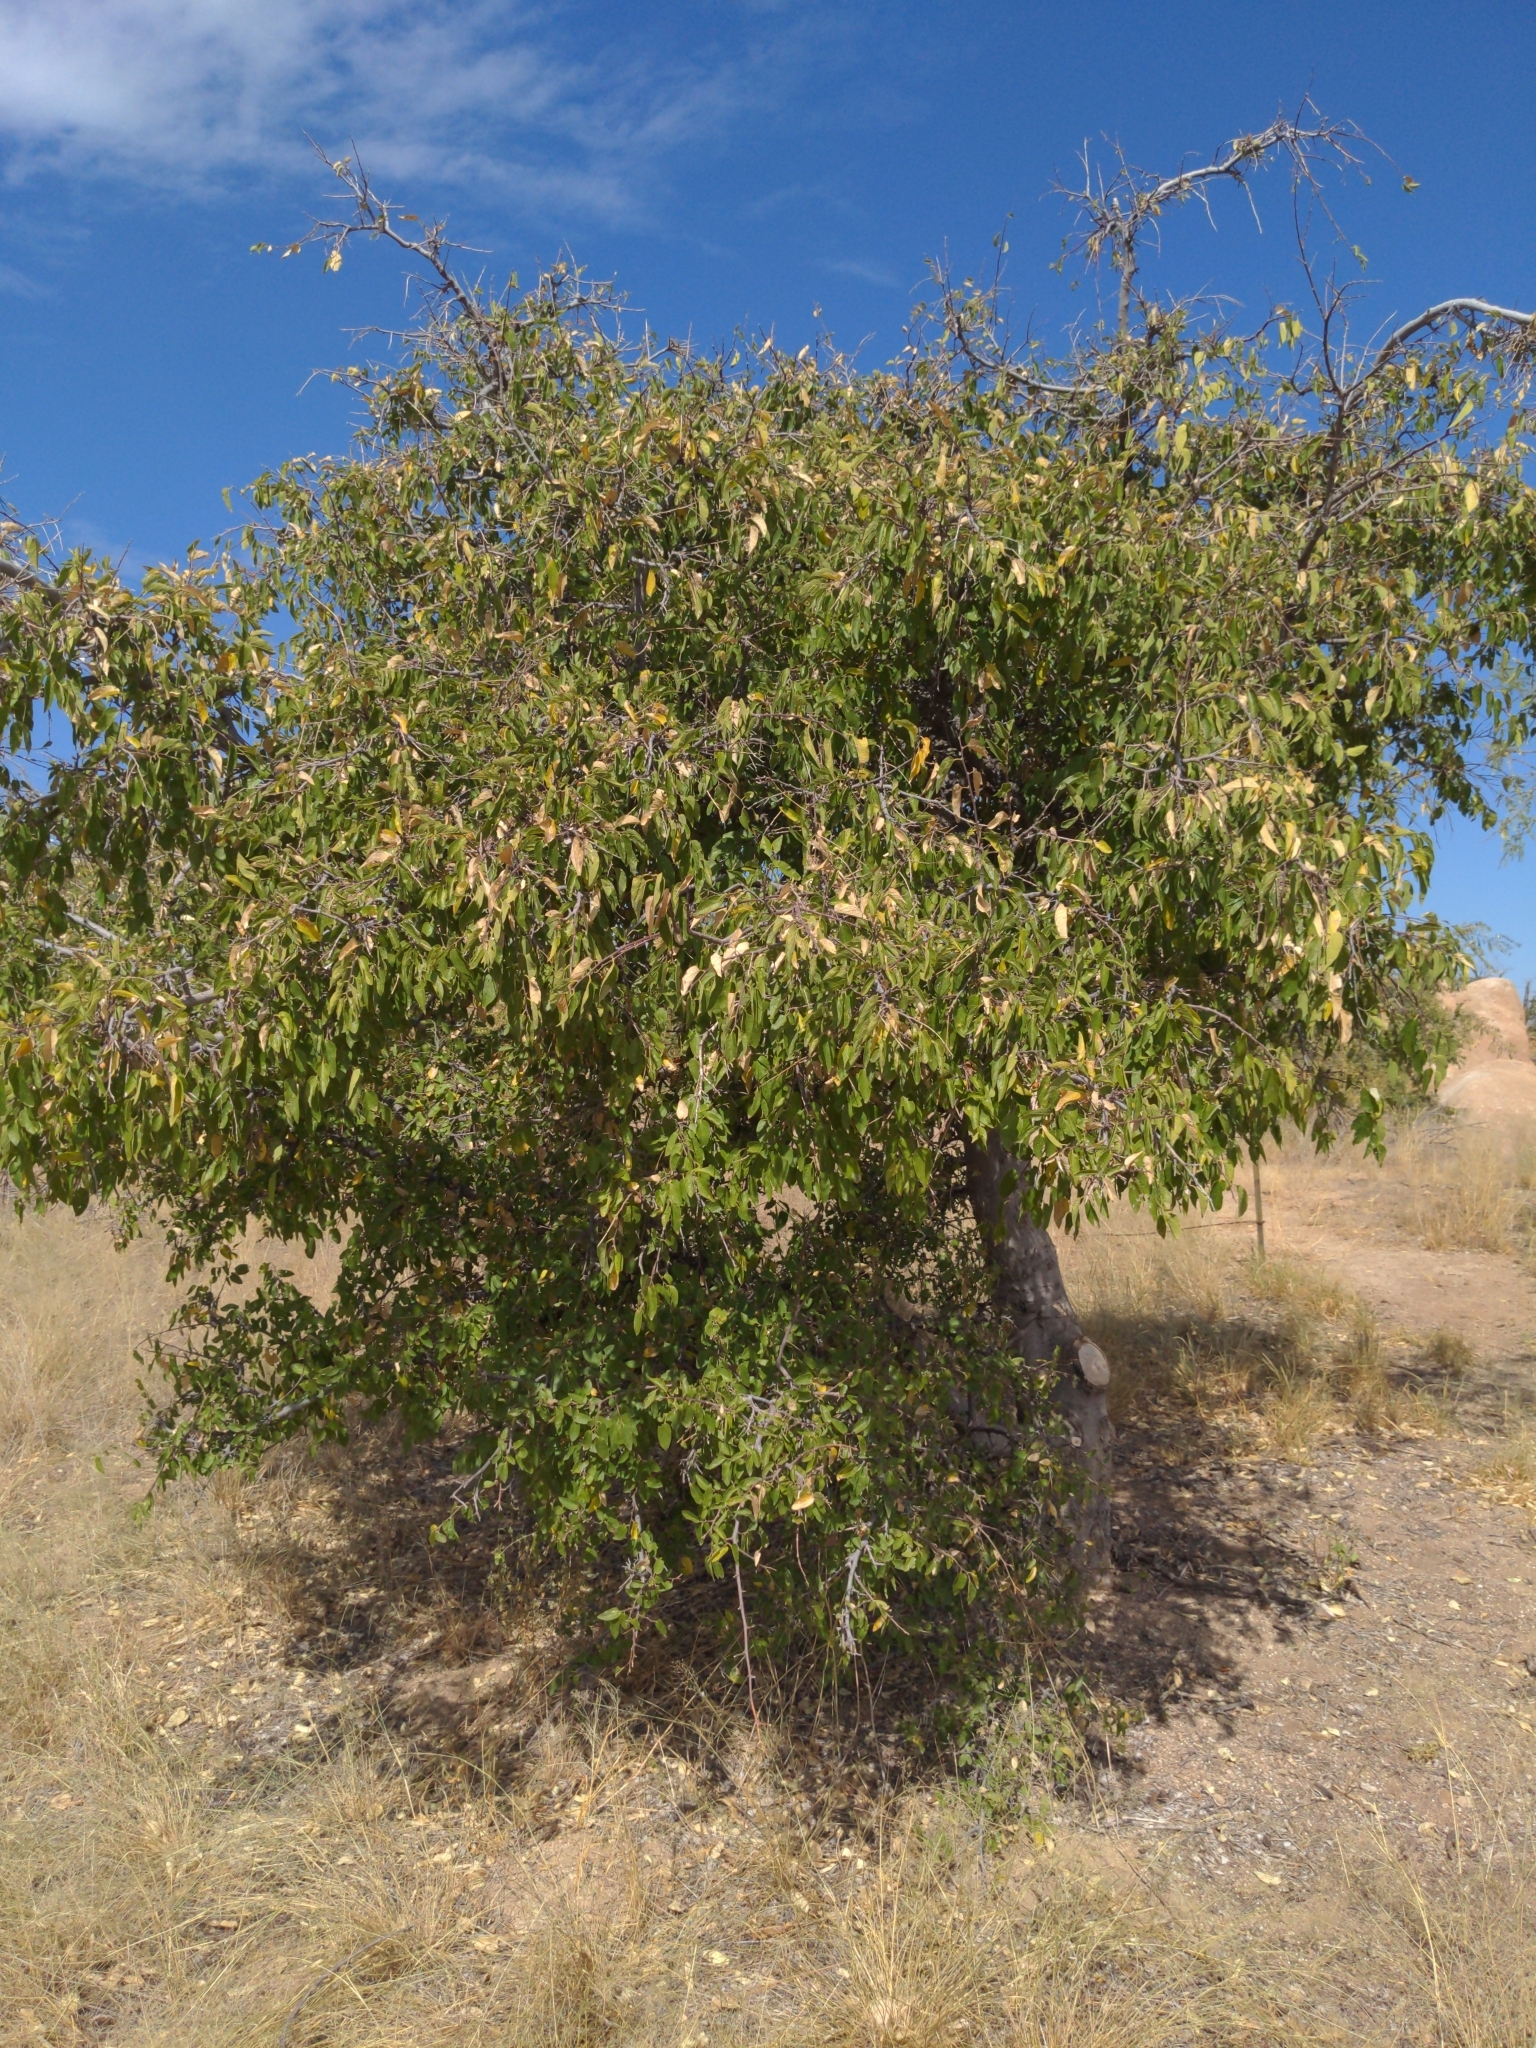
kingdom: Plantae
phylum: Tracheophyta
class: Magnoliopsida
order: Rosales
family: Cannabaceae
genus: Celtis
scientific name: Celtis reticulata
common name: Netleaf hackberry
